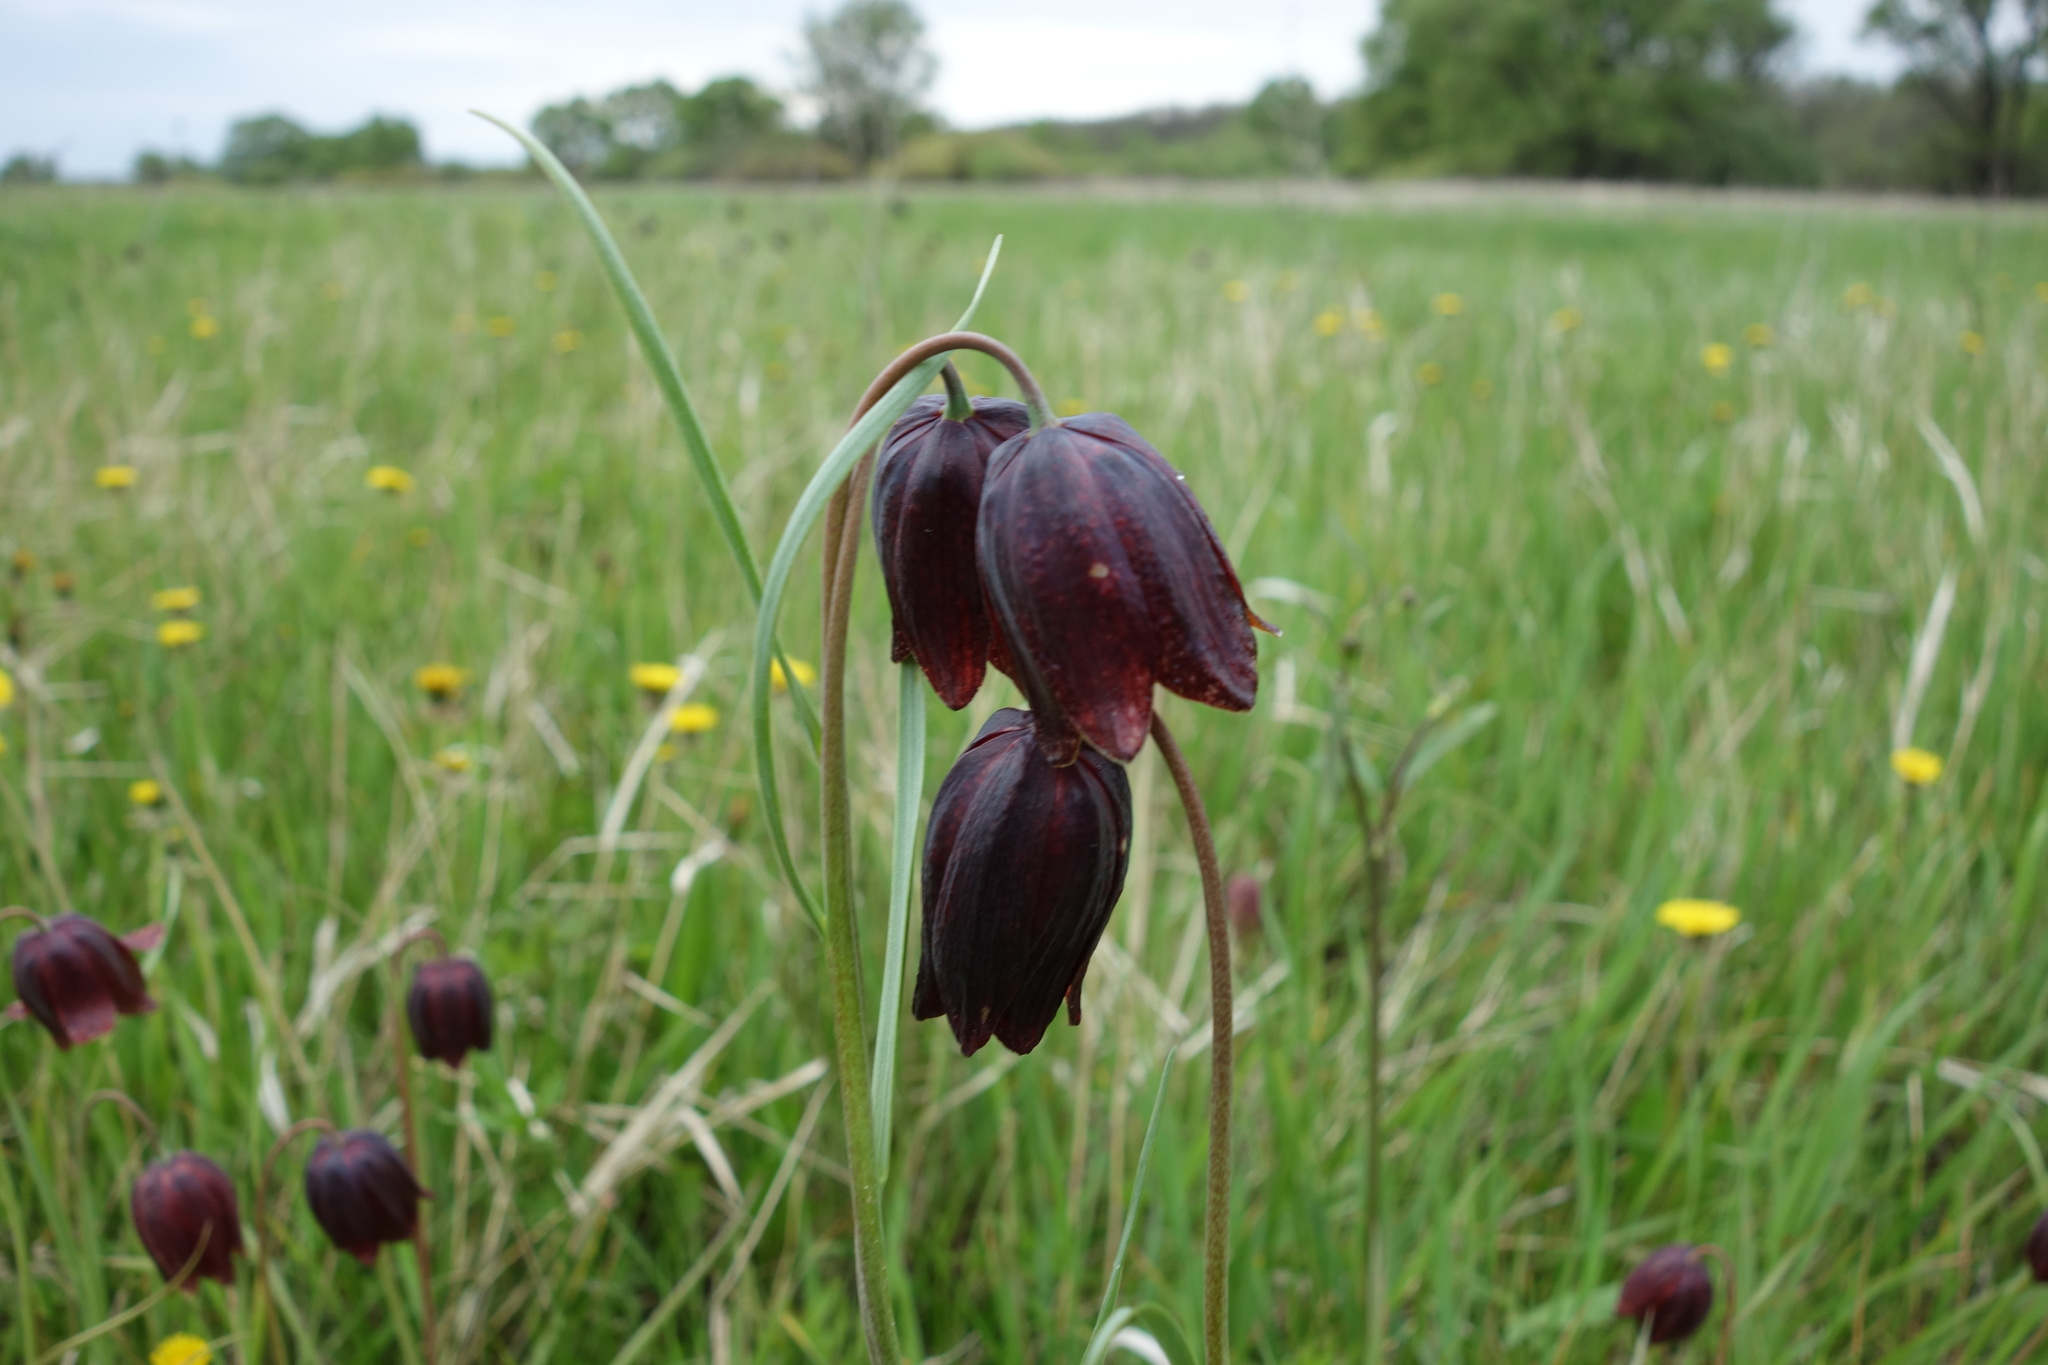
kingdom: Plantae
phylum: Tracheophyta
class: Liliopsida
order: Liliales
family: Liliaceae
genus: Fritillaria
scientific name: Fritillaria meleagroides
